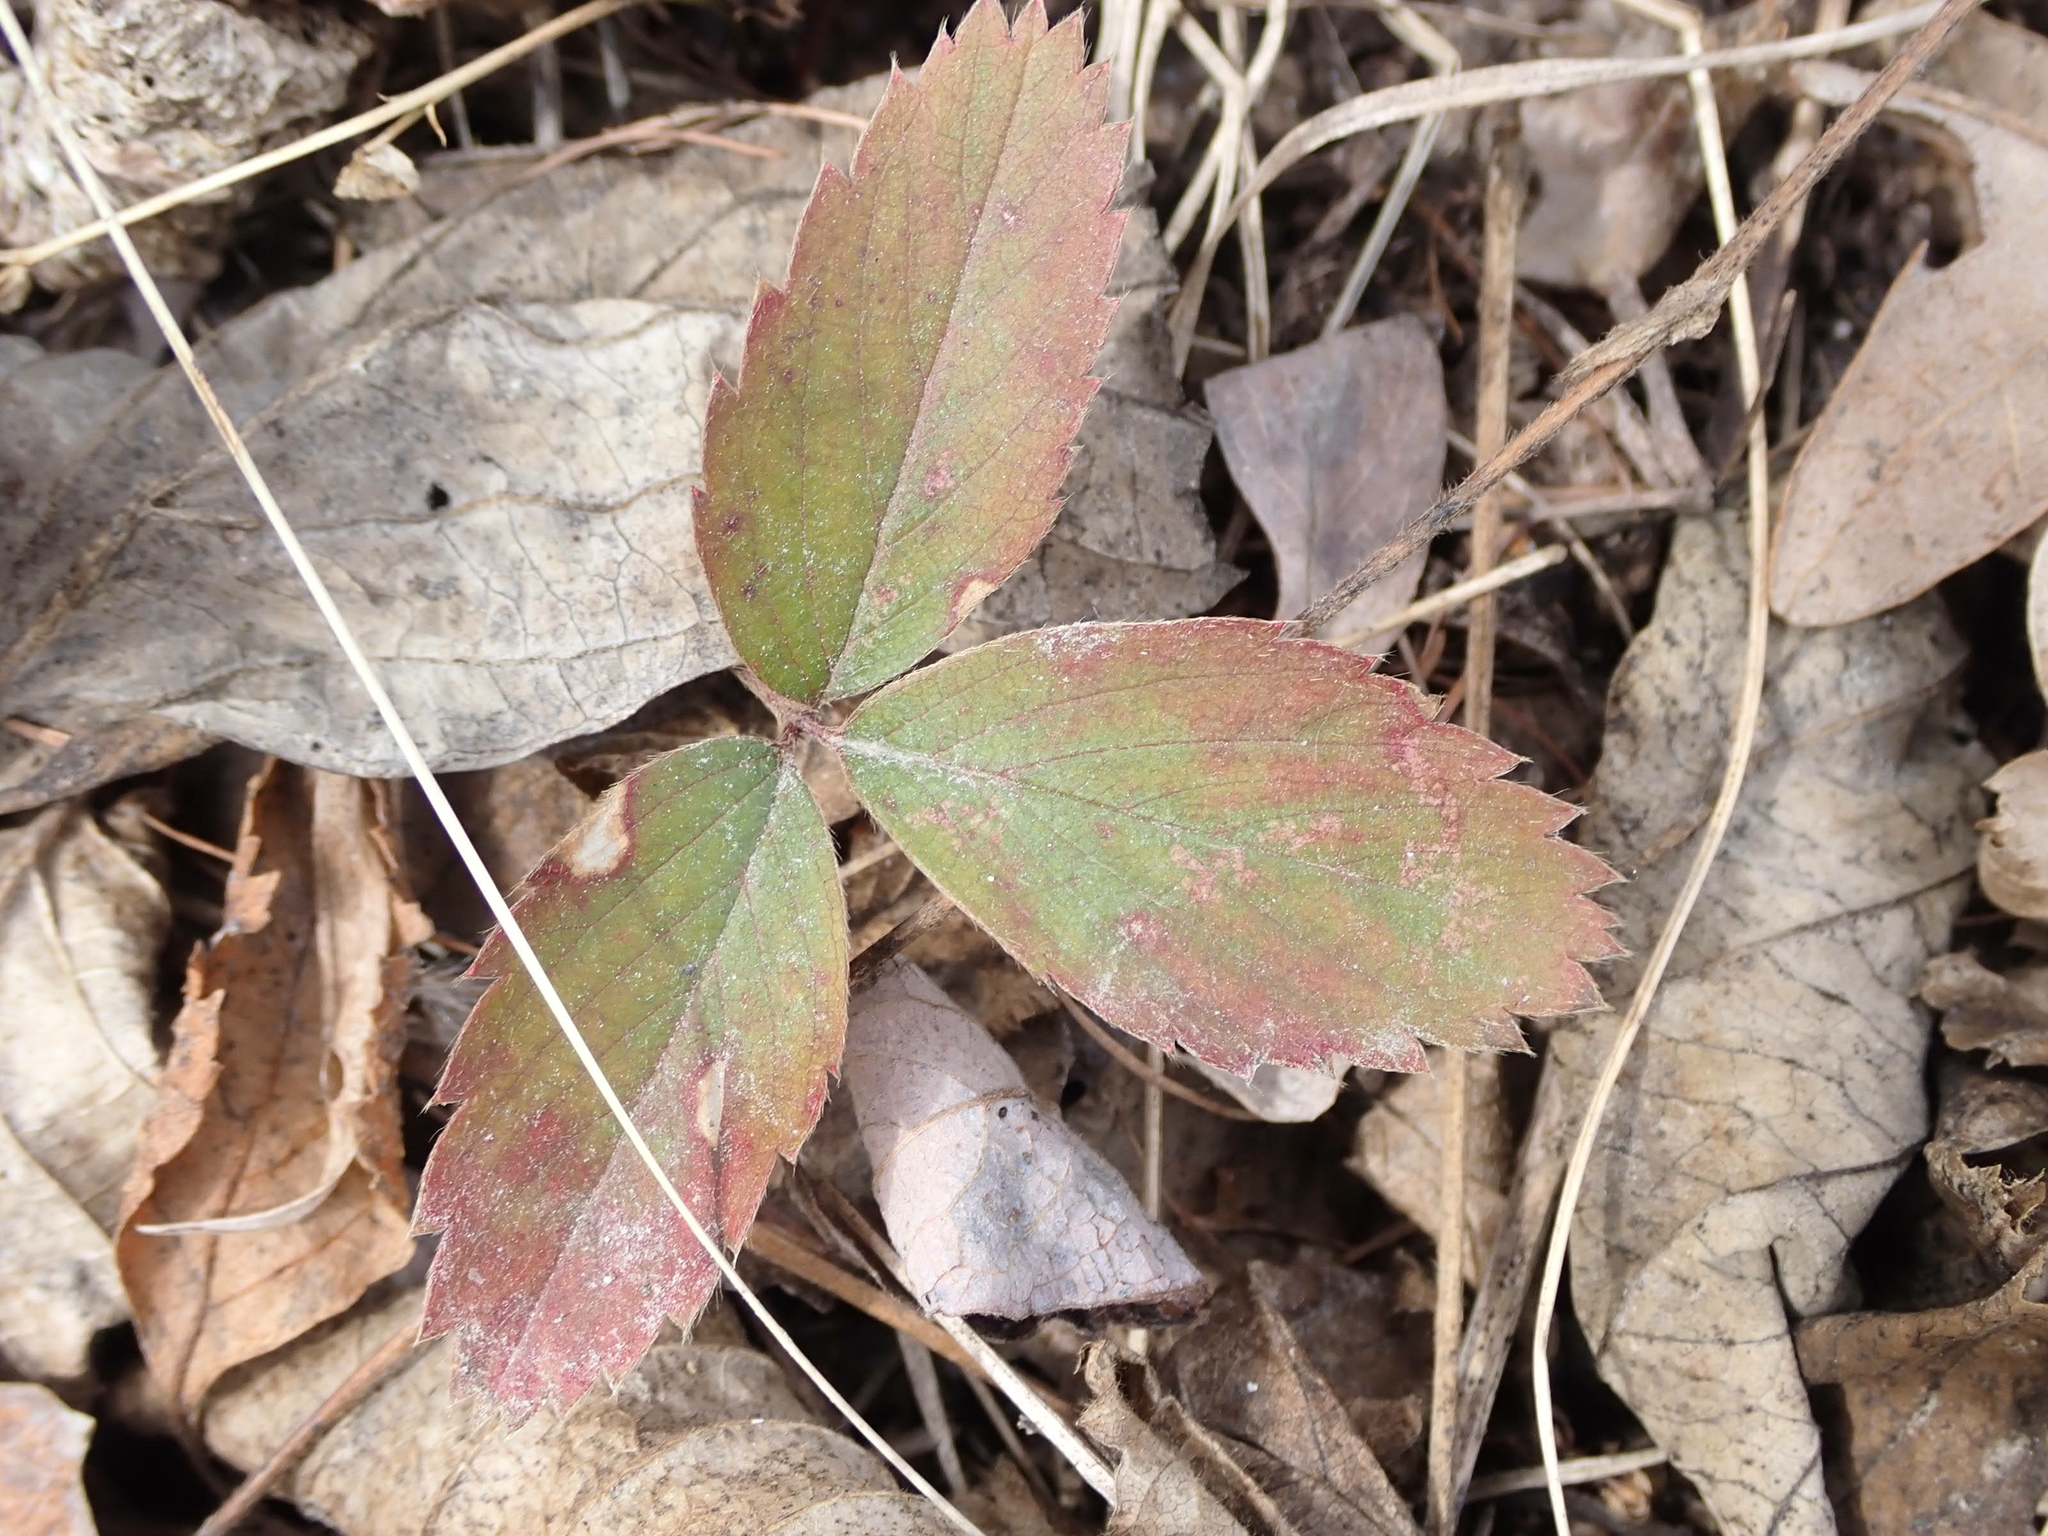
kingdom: Plantae
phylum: Tracheophyta
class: Magnoliopsida
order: Rosales
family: Rosaceae
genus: Fragaria
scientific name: Fragaria virginiana
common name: Thickleaved wild strawberry
